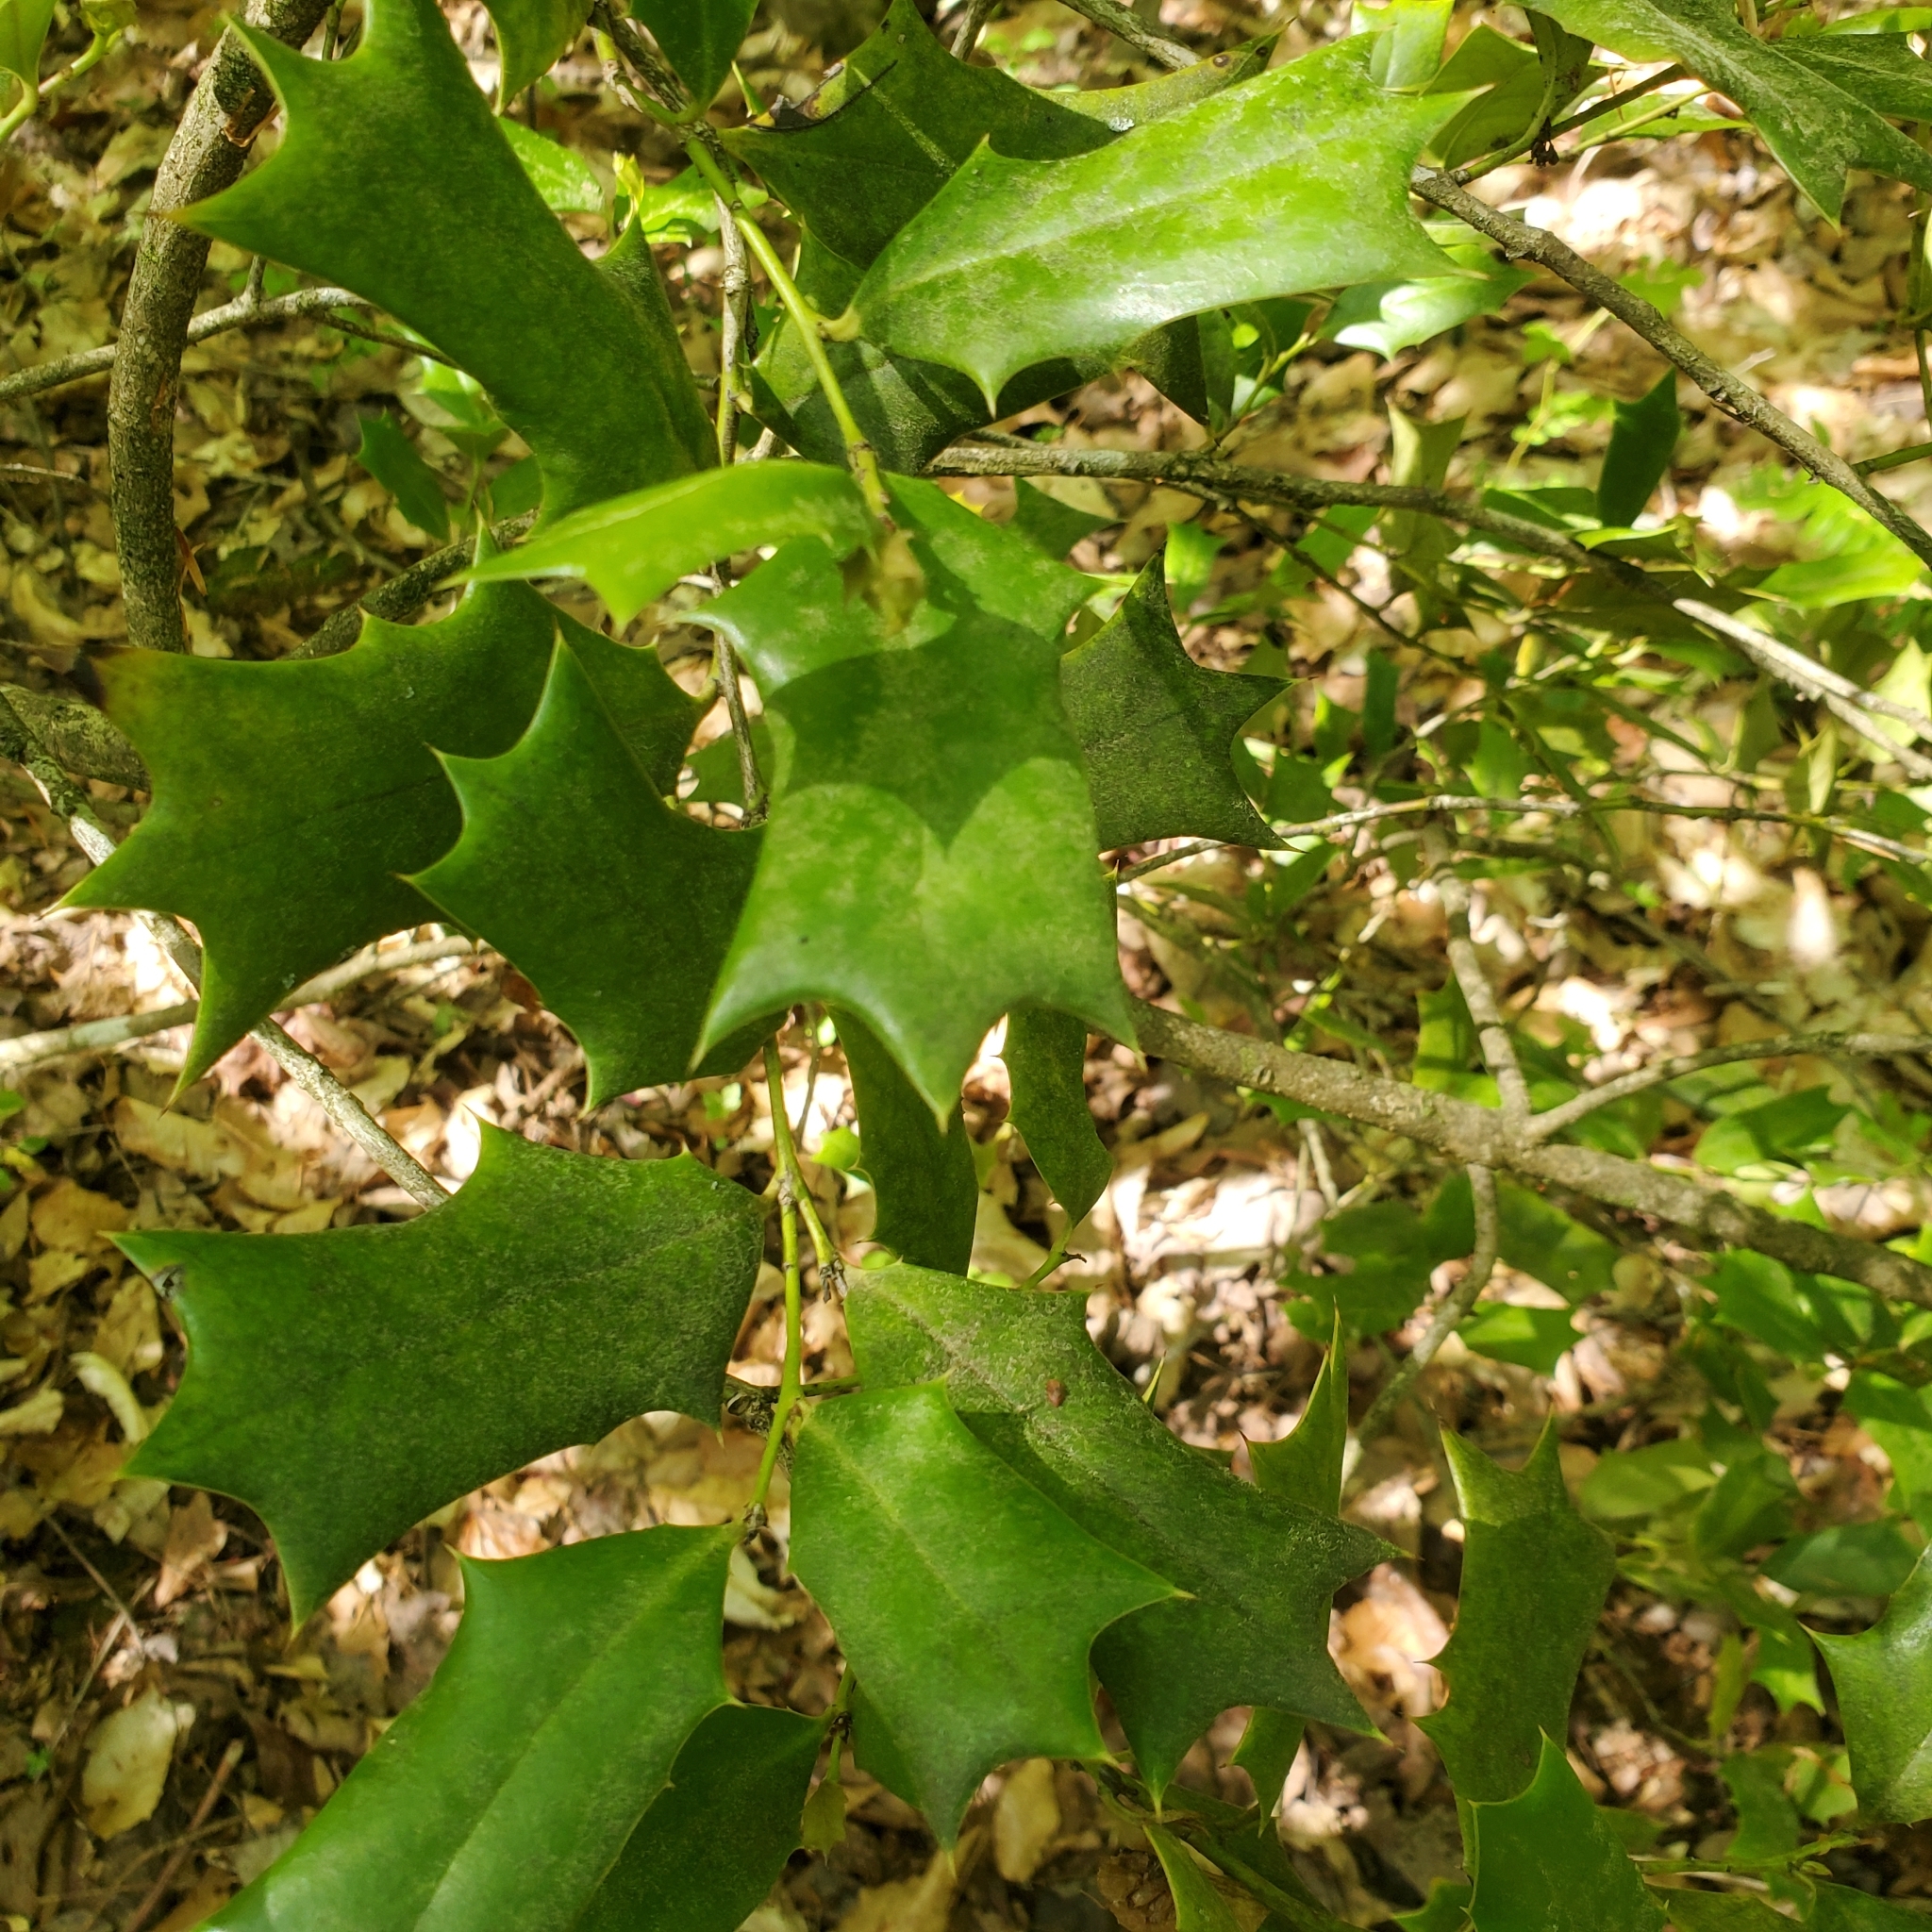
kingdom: Plantae
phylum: Tracheophyta
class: Magnoliopsida
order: Aquifoliales
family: Aquifoliaceae
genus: Ilex
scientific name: Ilex opaca
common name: American holly
